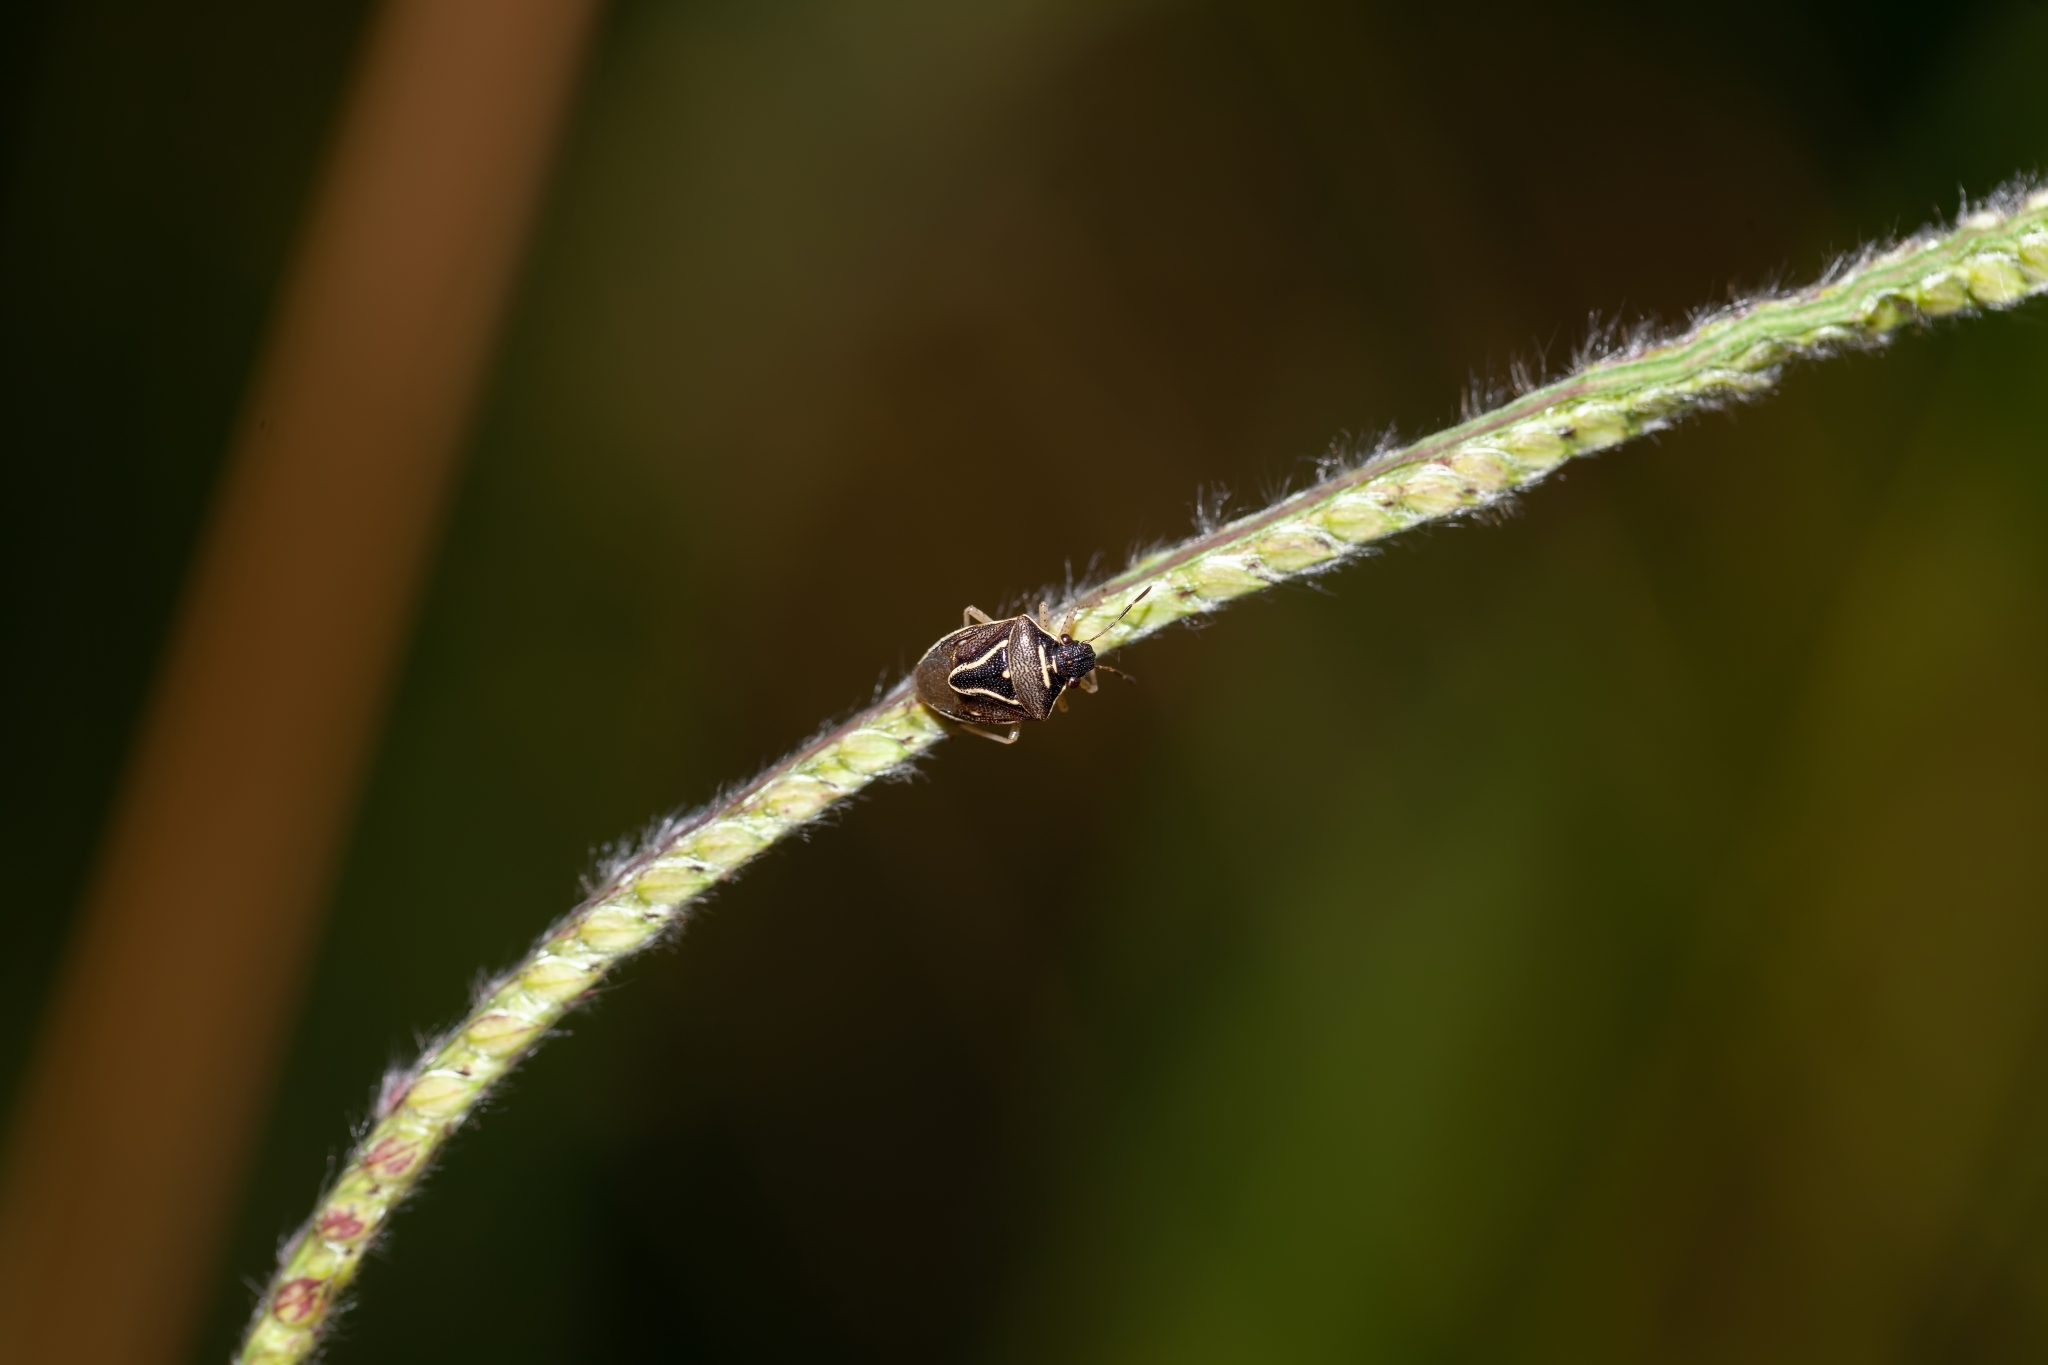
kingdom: Animalia
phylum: Arthropoda
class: Insecta
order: Hemiptera
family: Pentatomidae
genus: Mormidea
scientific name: Mormidea lugens
